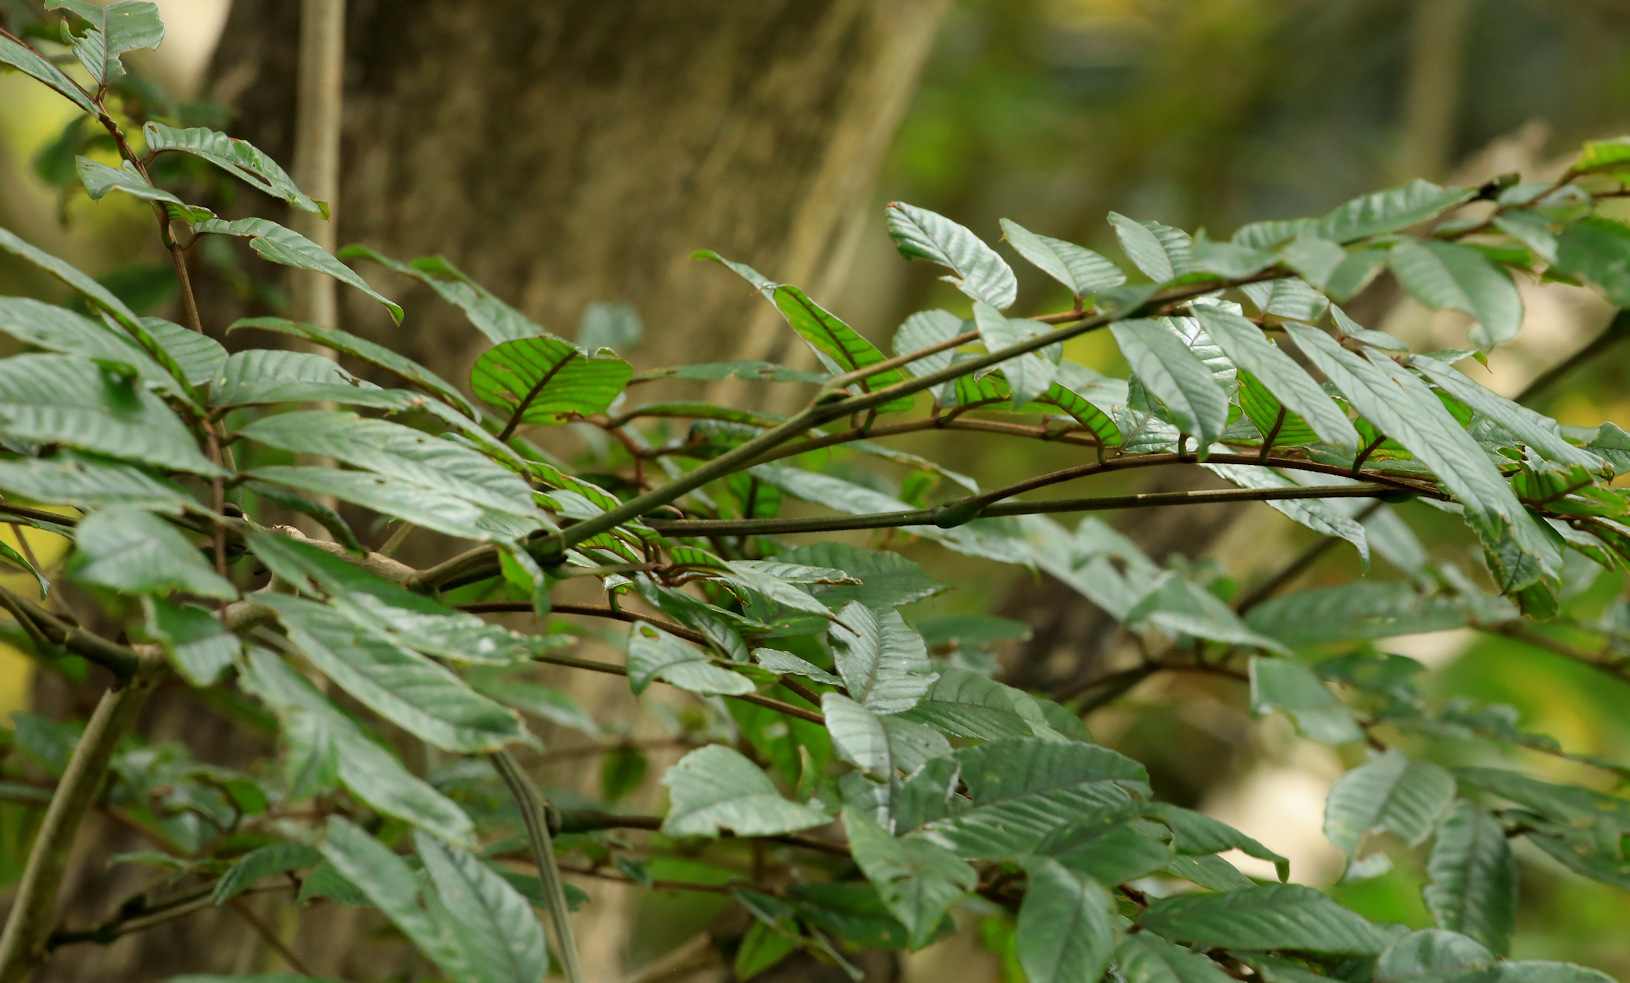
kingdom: Plantae
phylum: Tracheophyta
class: Magnoliopsida
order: Fabales
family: Fabaceae
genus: Millettia
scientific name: Millettia grandis
